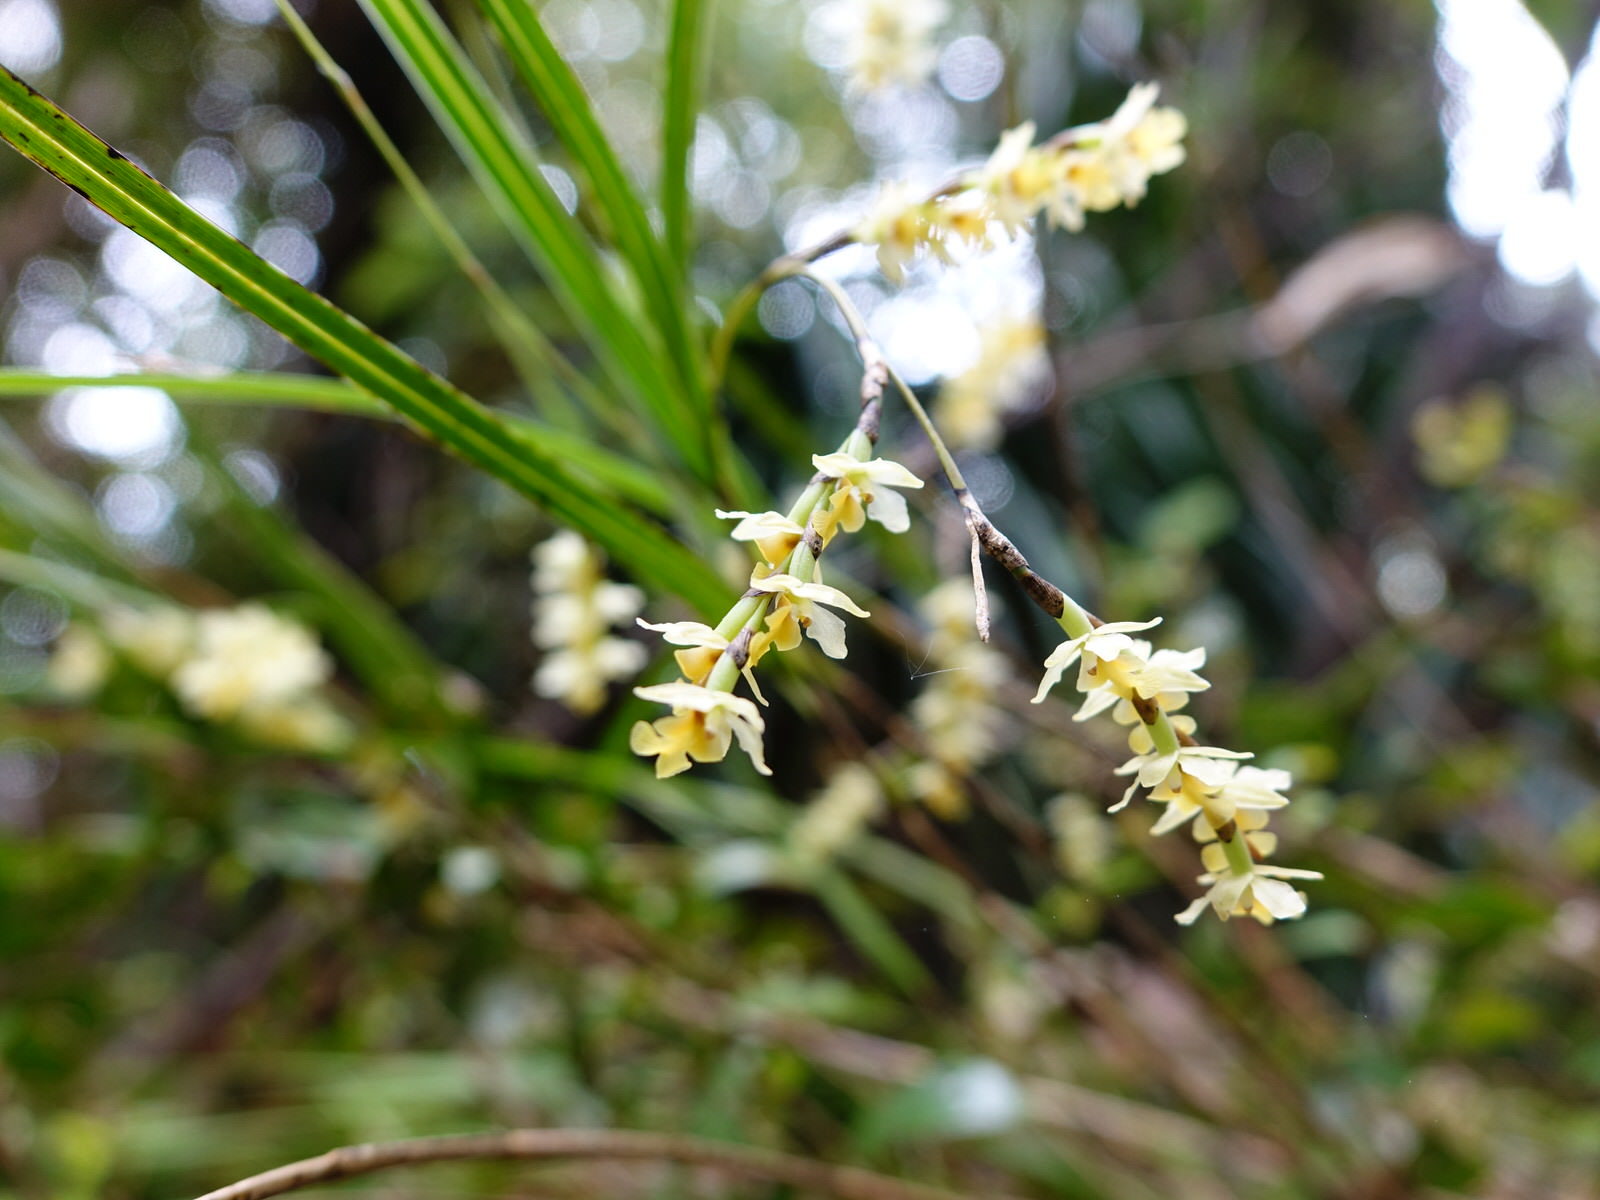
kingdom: Plantae
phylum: Tracheophyta
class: Liliopsida
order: Asparagales
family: Orchidaceae
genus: Earina
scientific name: Earina mucronata
